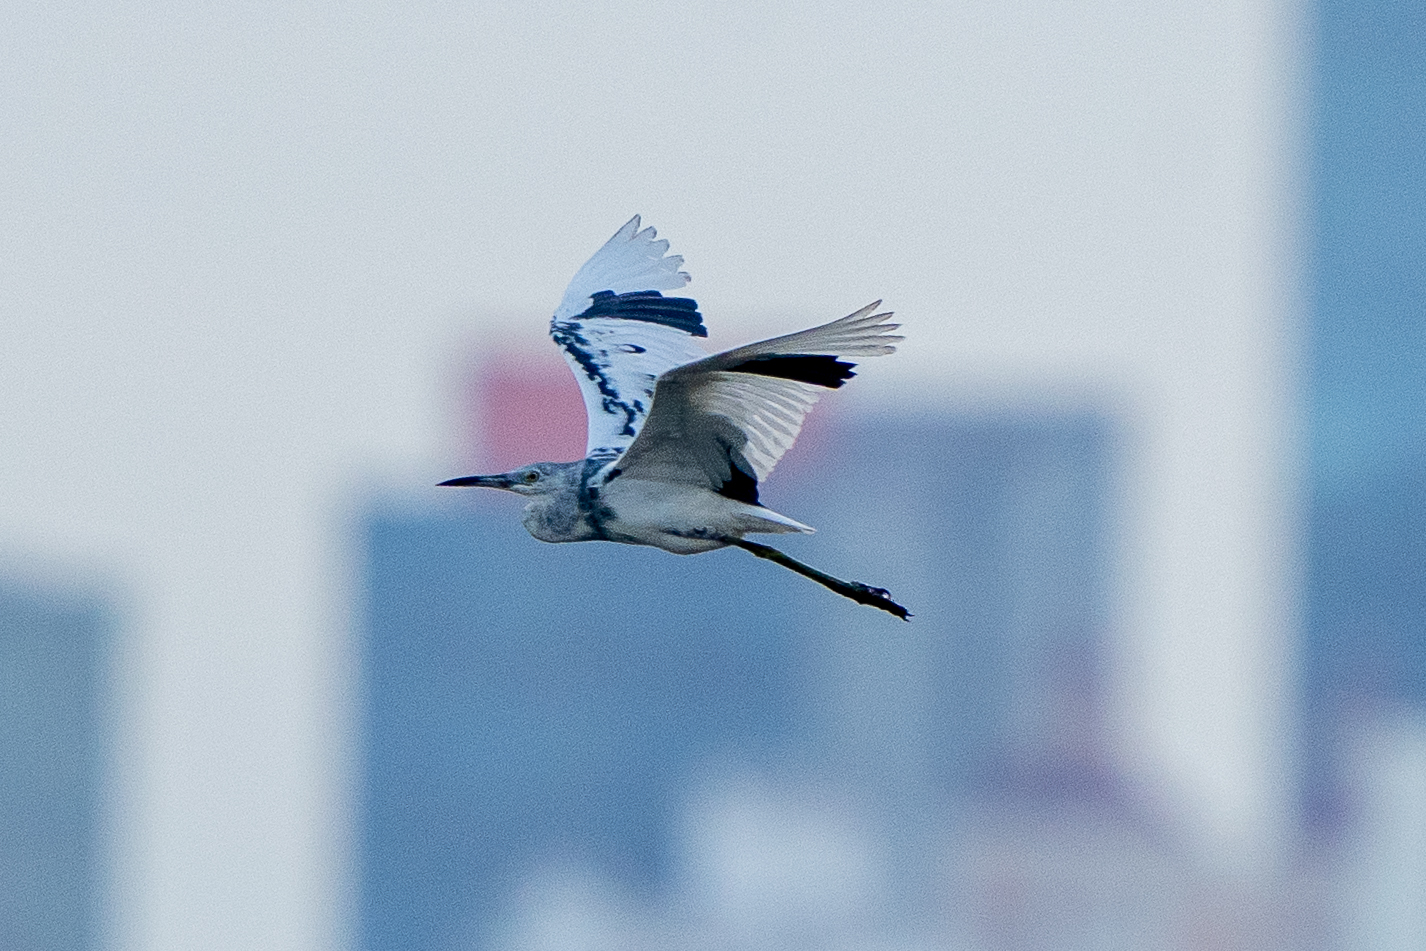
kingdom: Animalia
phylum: Chordata
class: Aves
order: Pelecaniformes
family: Ardeidae
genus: Egretta
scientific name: Egretta caerulea
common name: Little blue heron
